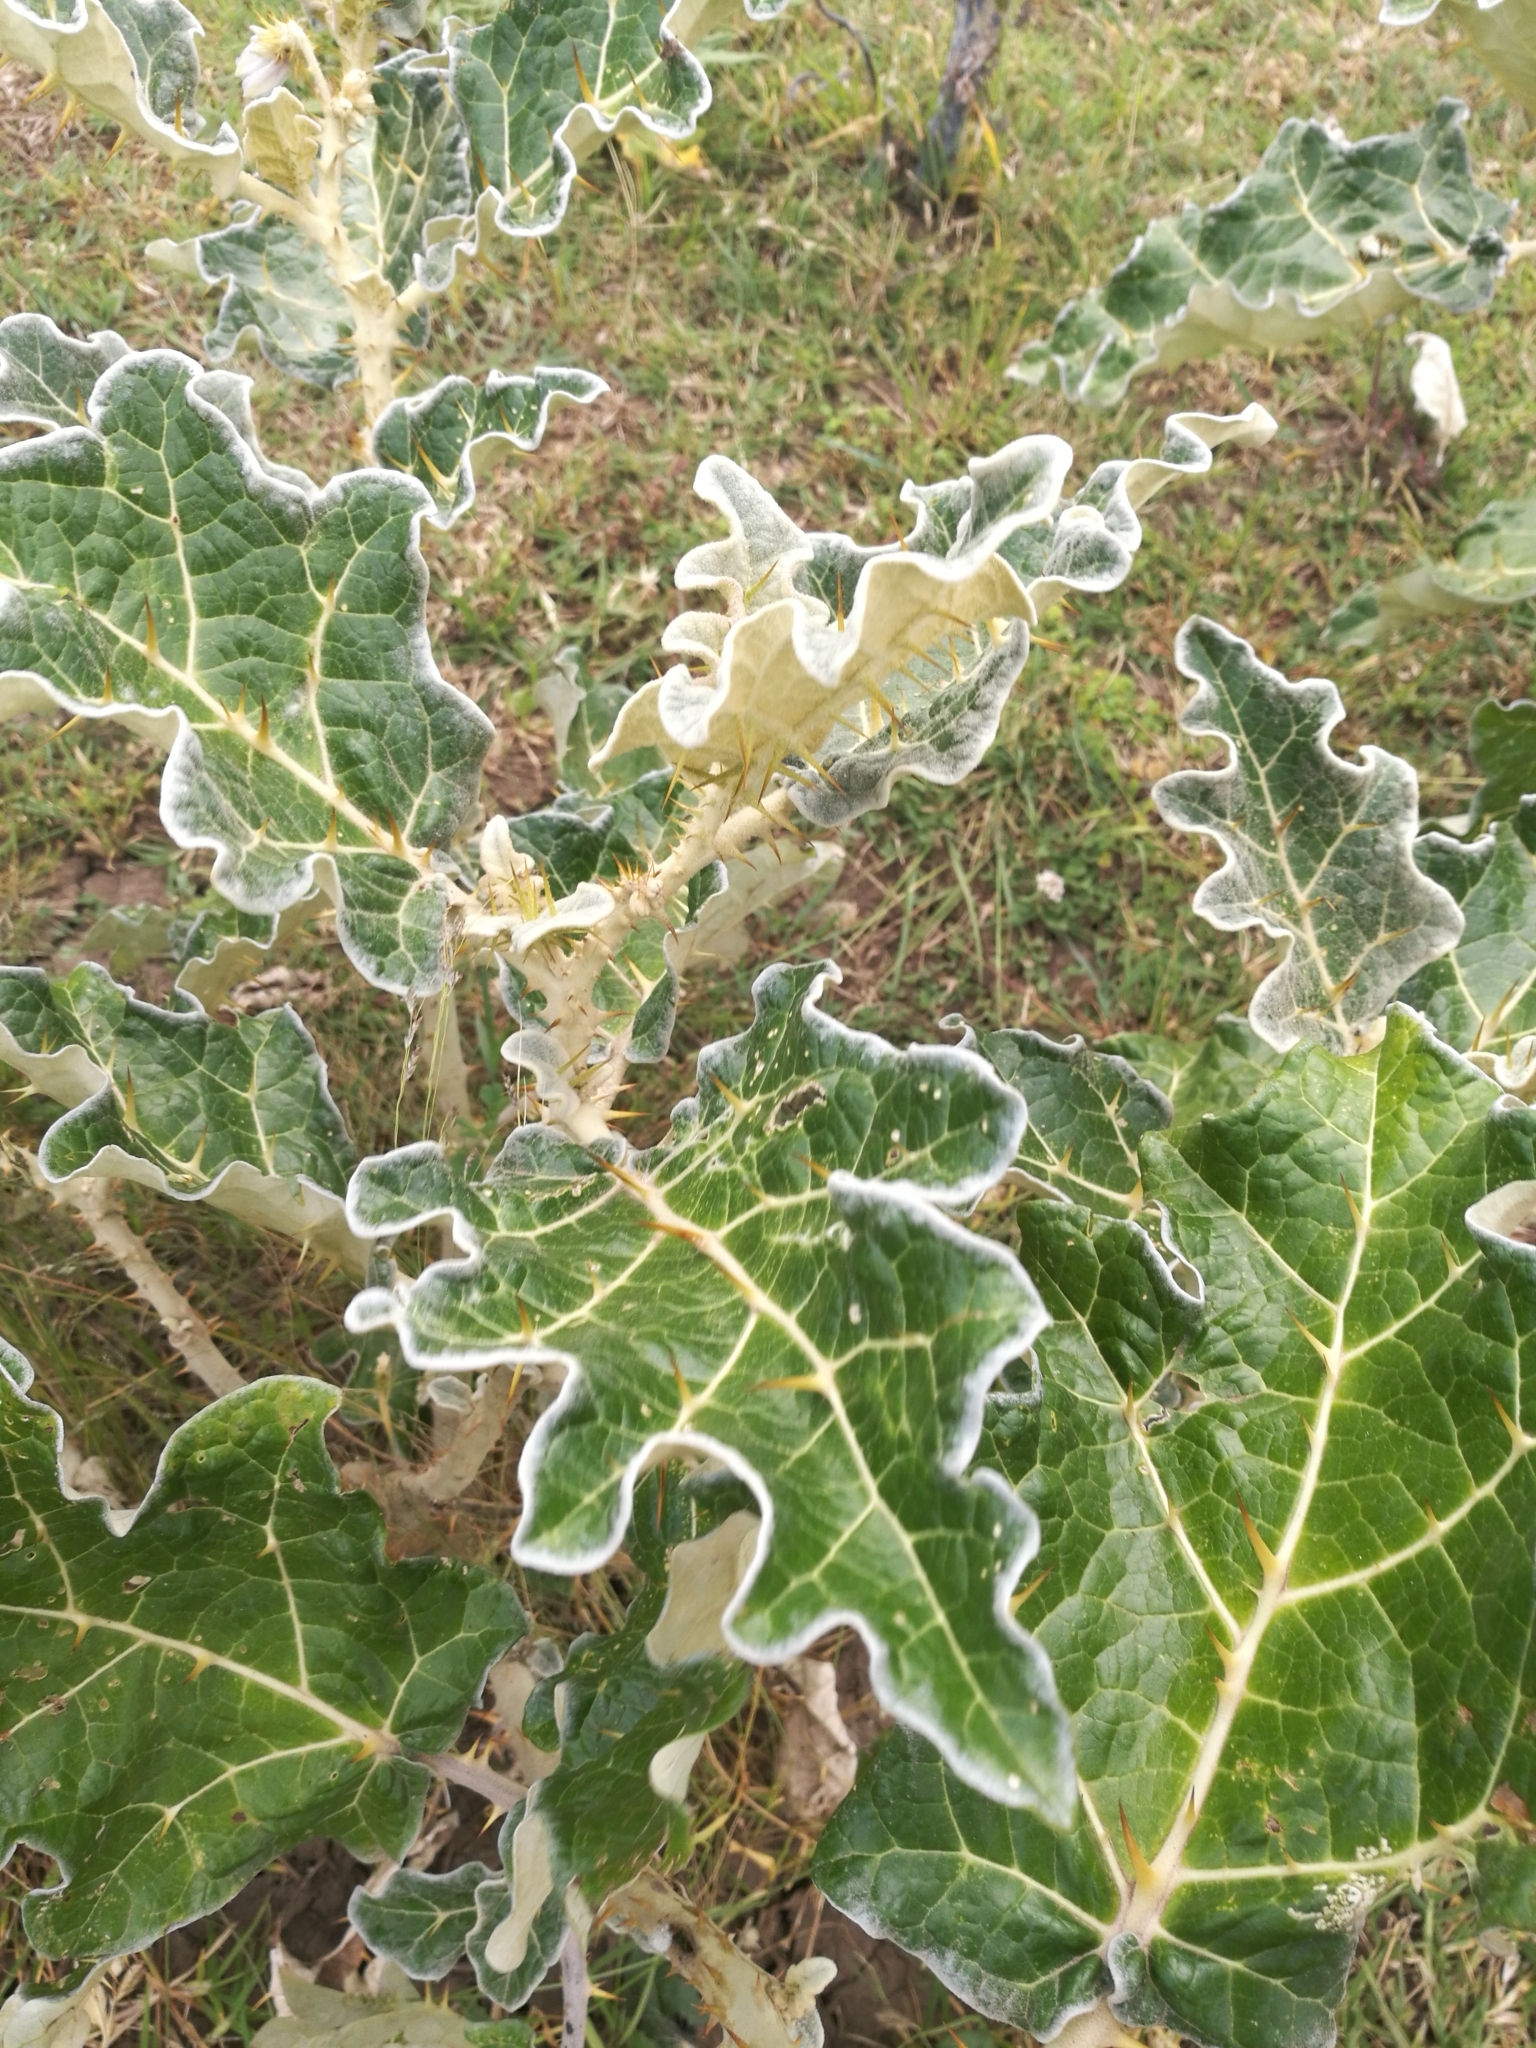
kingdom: Plantae
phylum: Tracheophyta
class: Magnoliopsida
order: Solanales
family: Solanaceae
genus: Solanum
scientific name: Solanum marginatum
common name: Purple african nightshade
